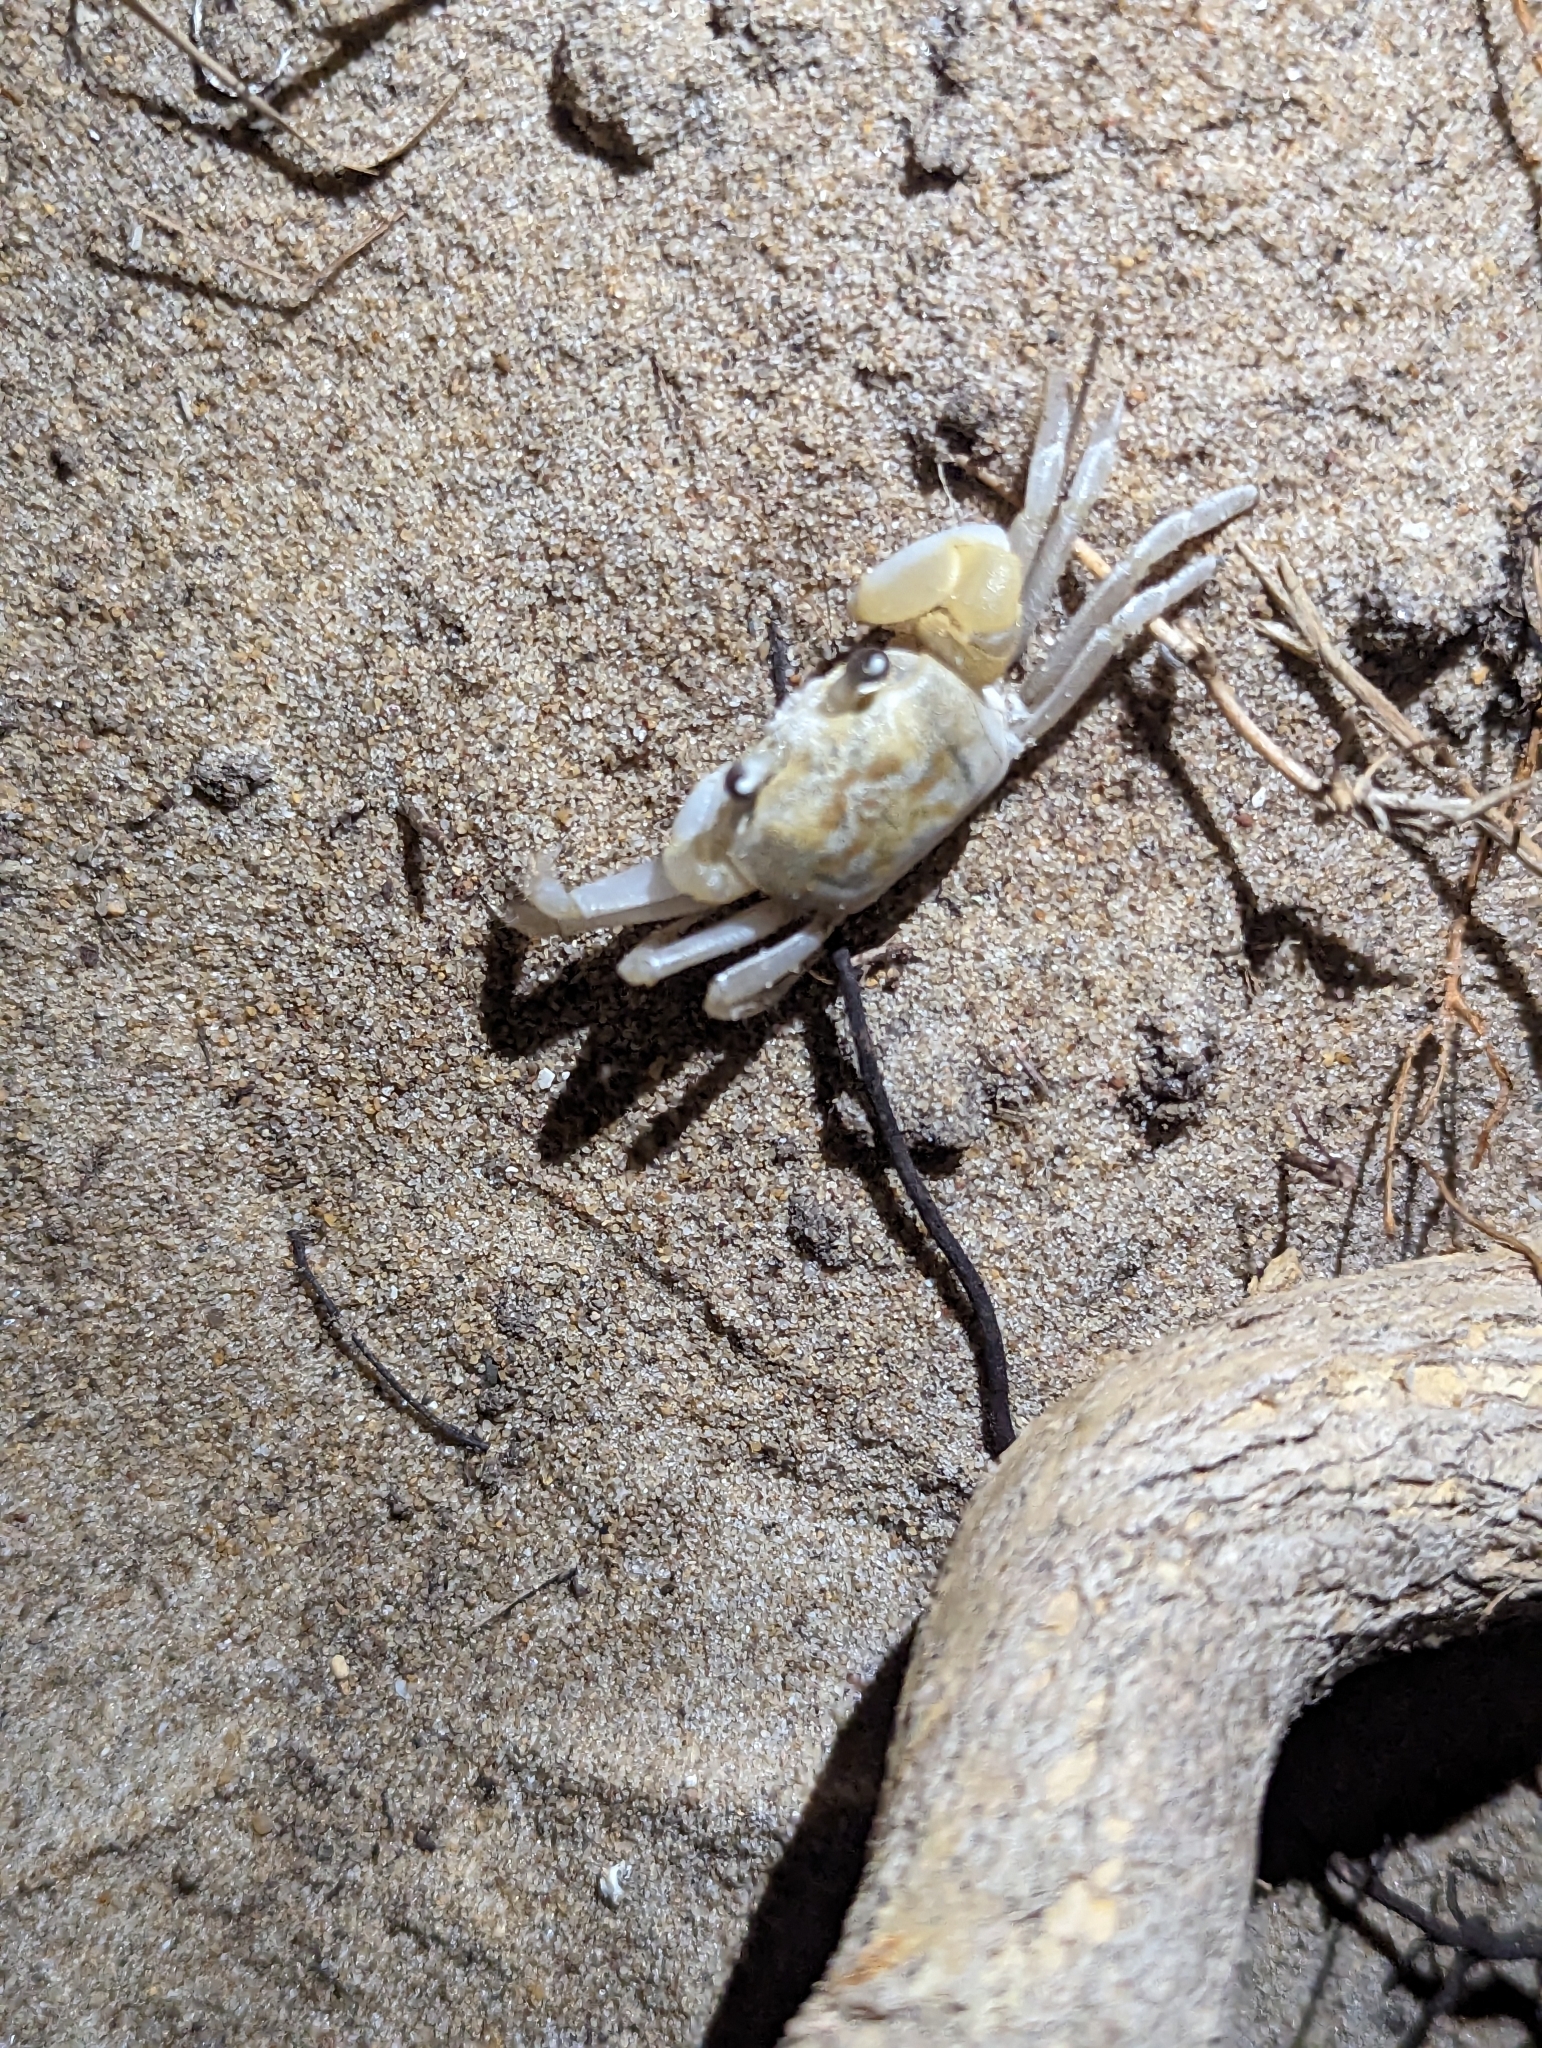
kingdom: Animalia
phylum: Arthropoda
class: Malacostraca
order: Decapoda
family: Ocypodidae
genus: Ocypode
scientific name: Ocypode cordimana
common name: Smooth-eyed ghost crab
